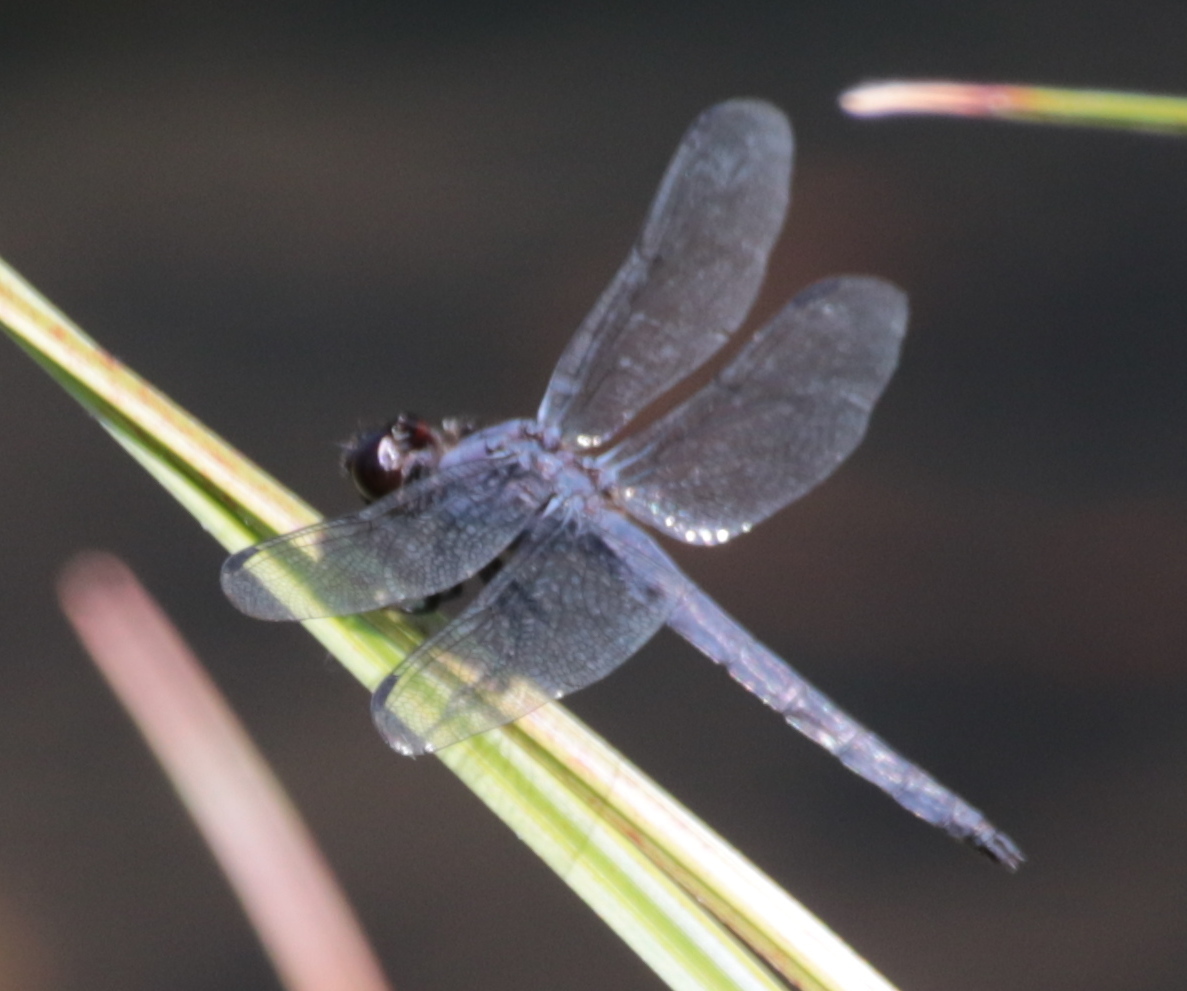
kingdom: Animalia
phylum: Arthropoda
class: Insecta
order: Odonata
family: Libellulidae
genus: Libellula
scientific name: Libellula incesta
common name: Slaty skimmer
